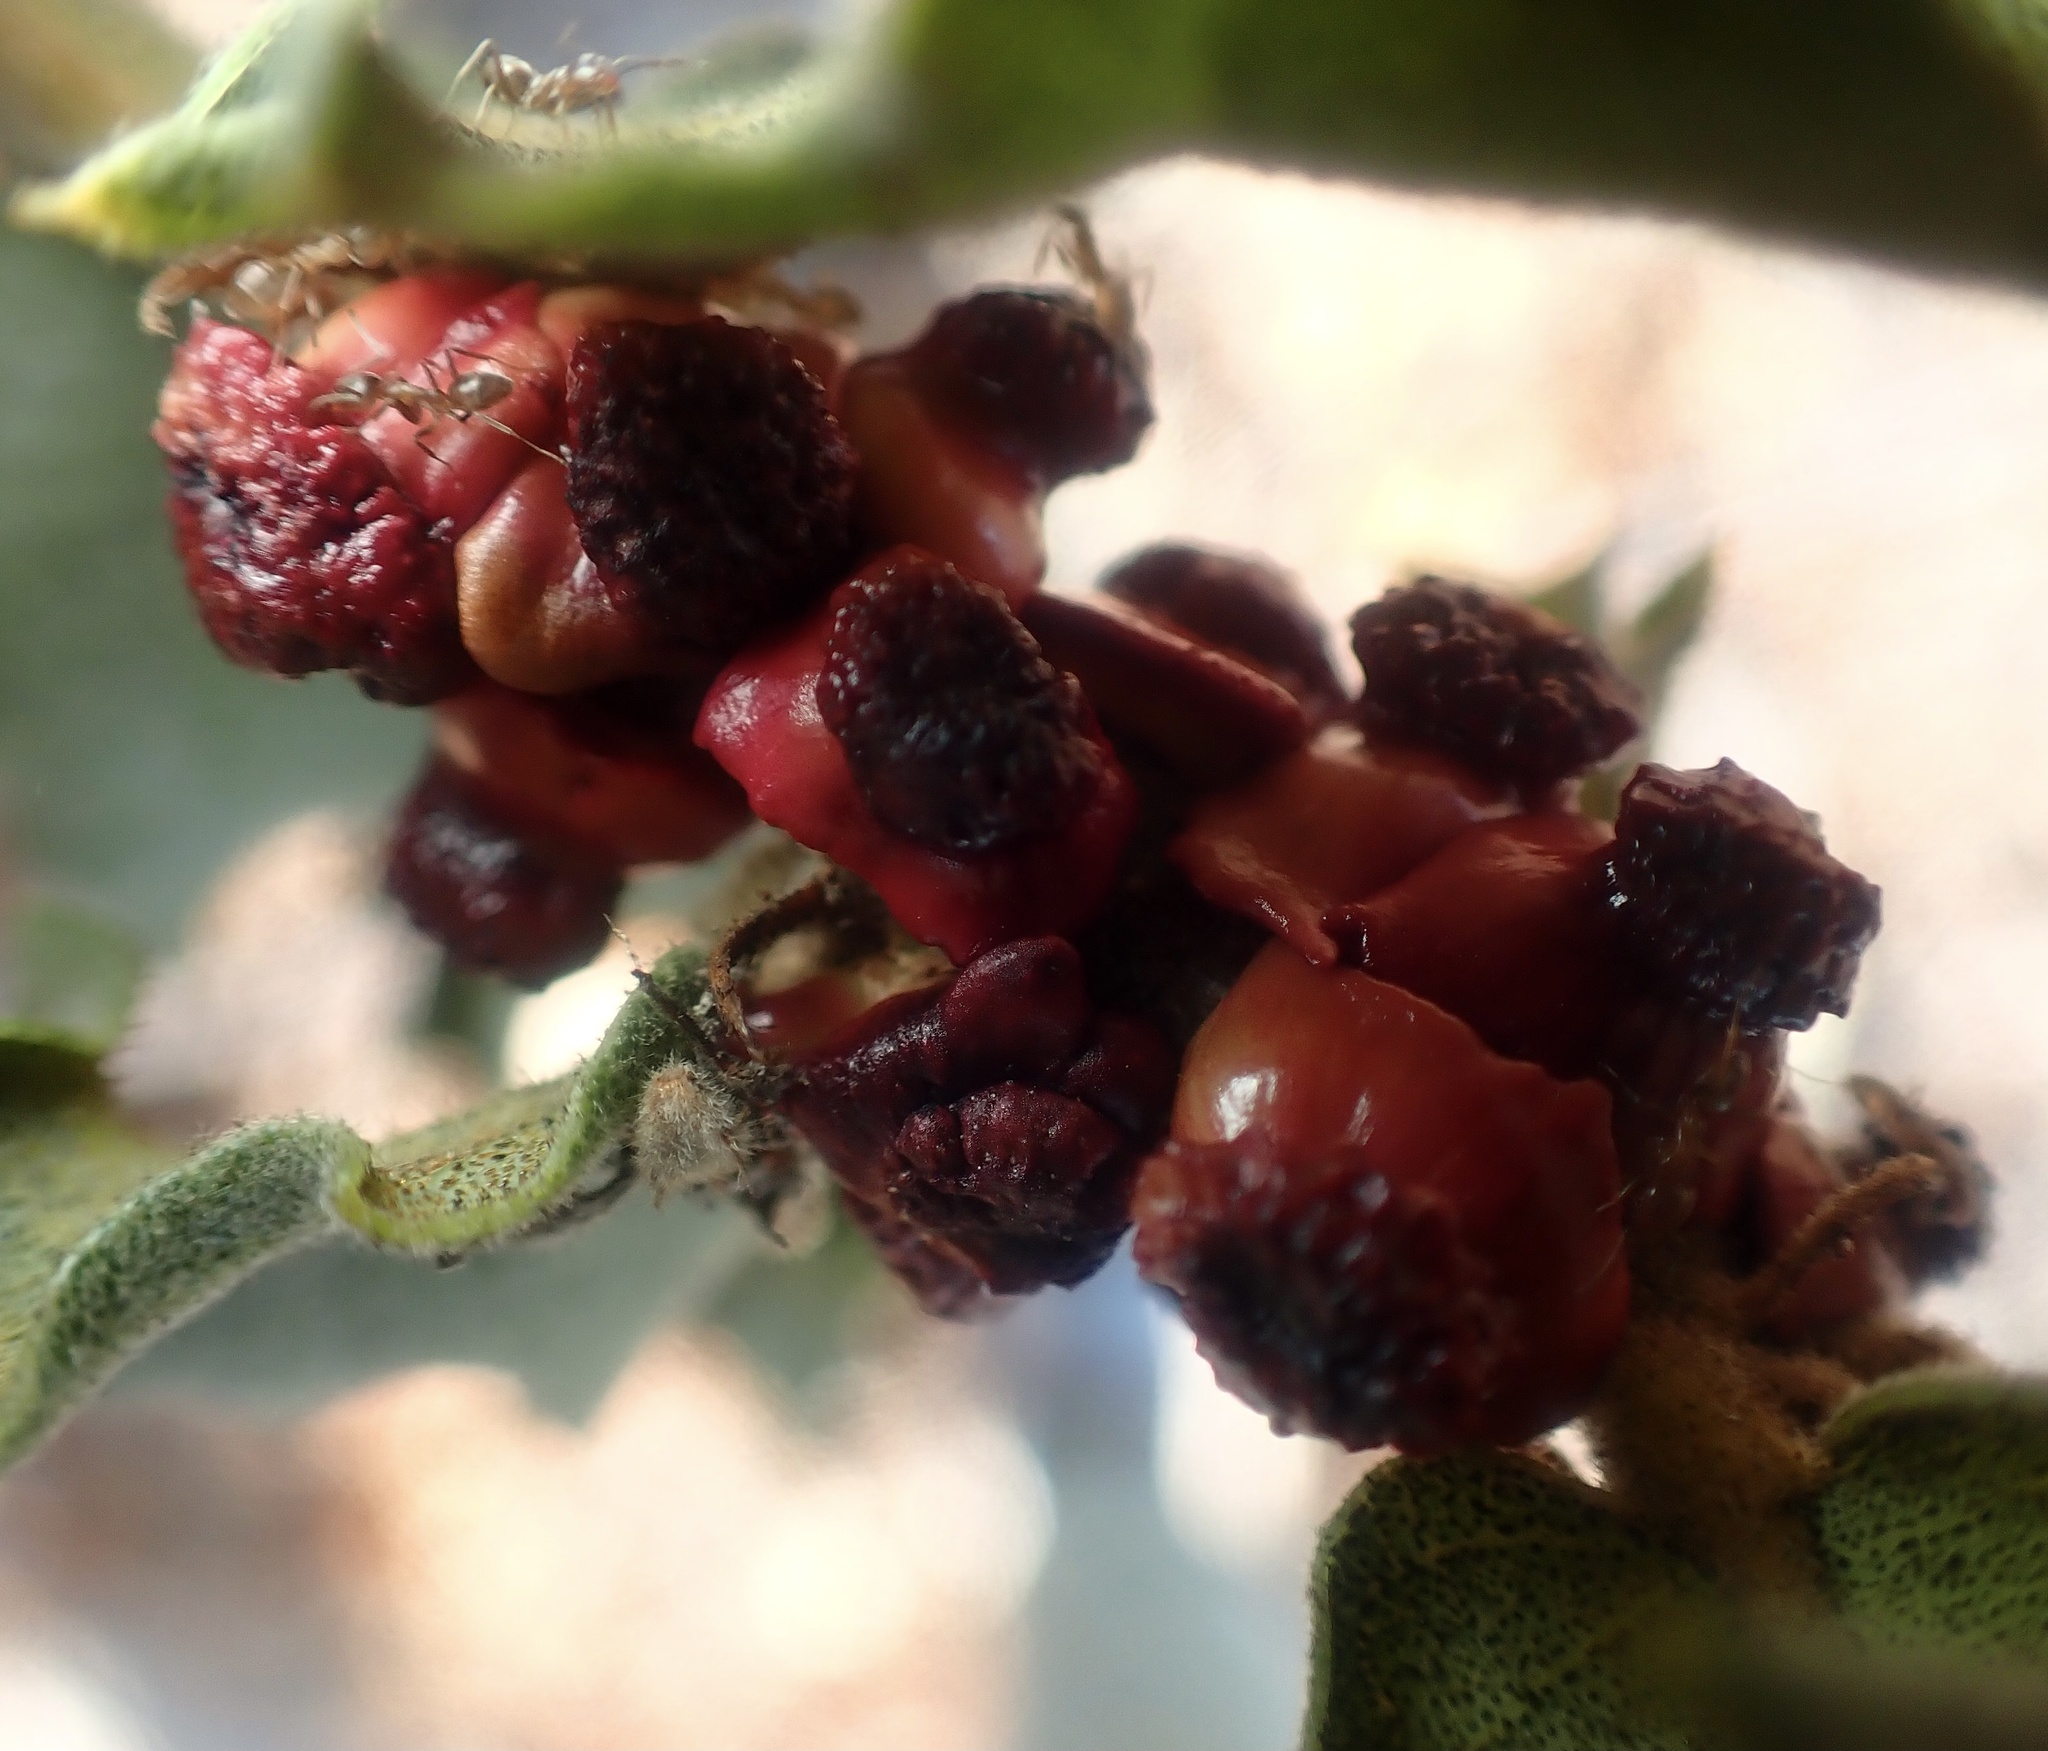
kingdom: Animalia
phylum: Arthropoda
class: Insecta
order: Hymenoptera
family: Cynipidae
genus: Disholcaspis
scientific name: Disholcaspis prehensa
